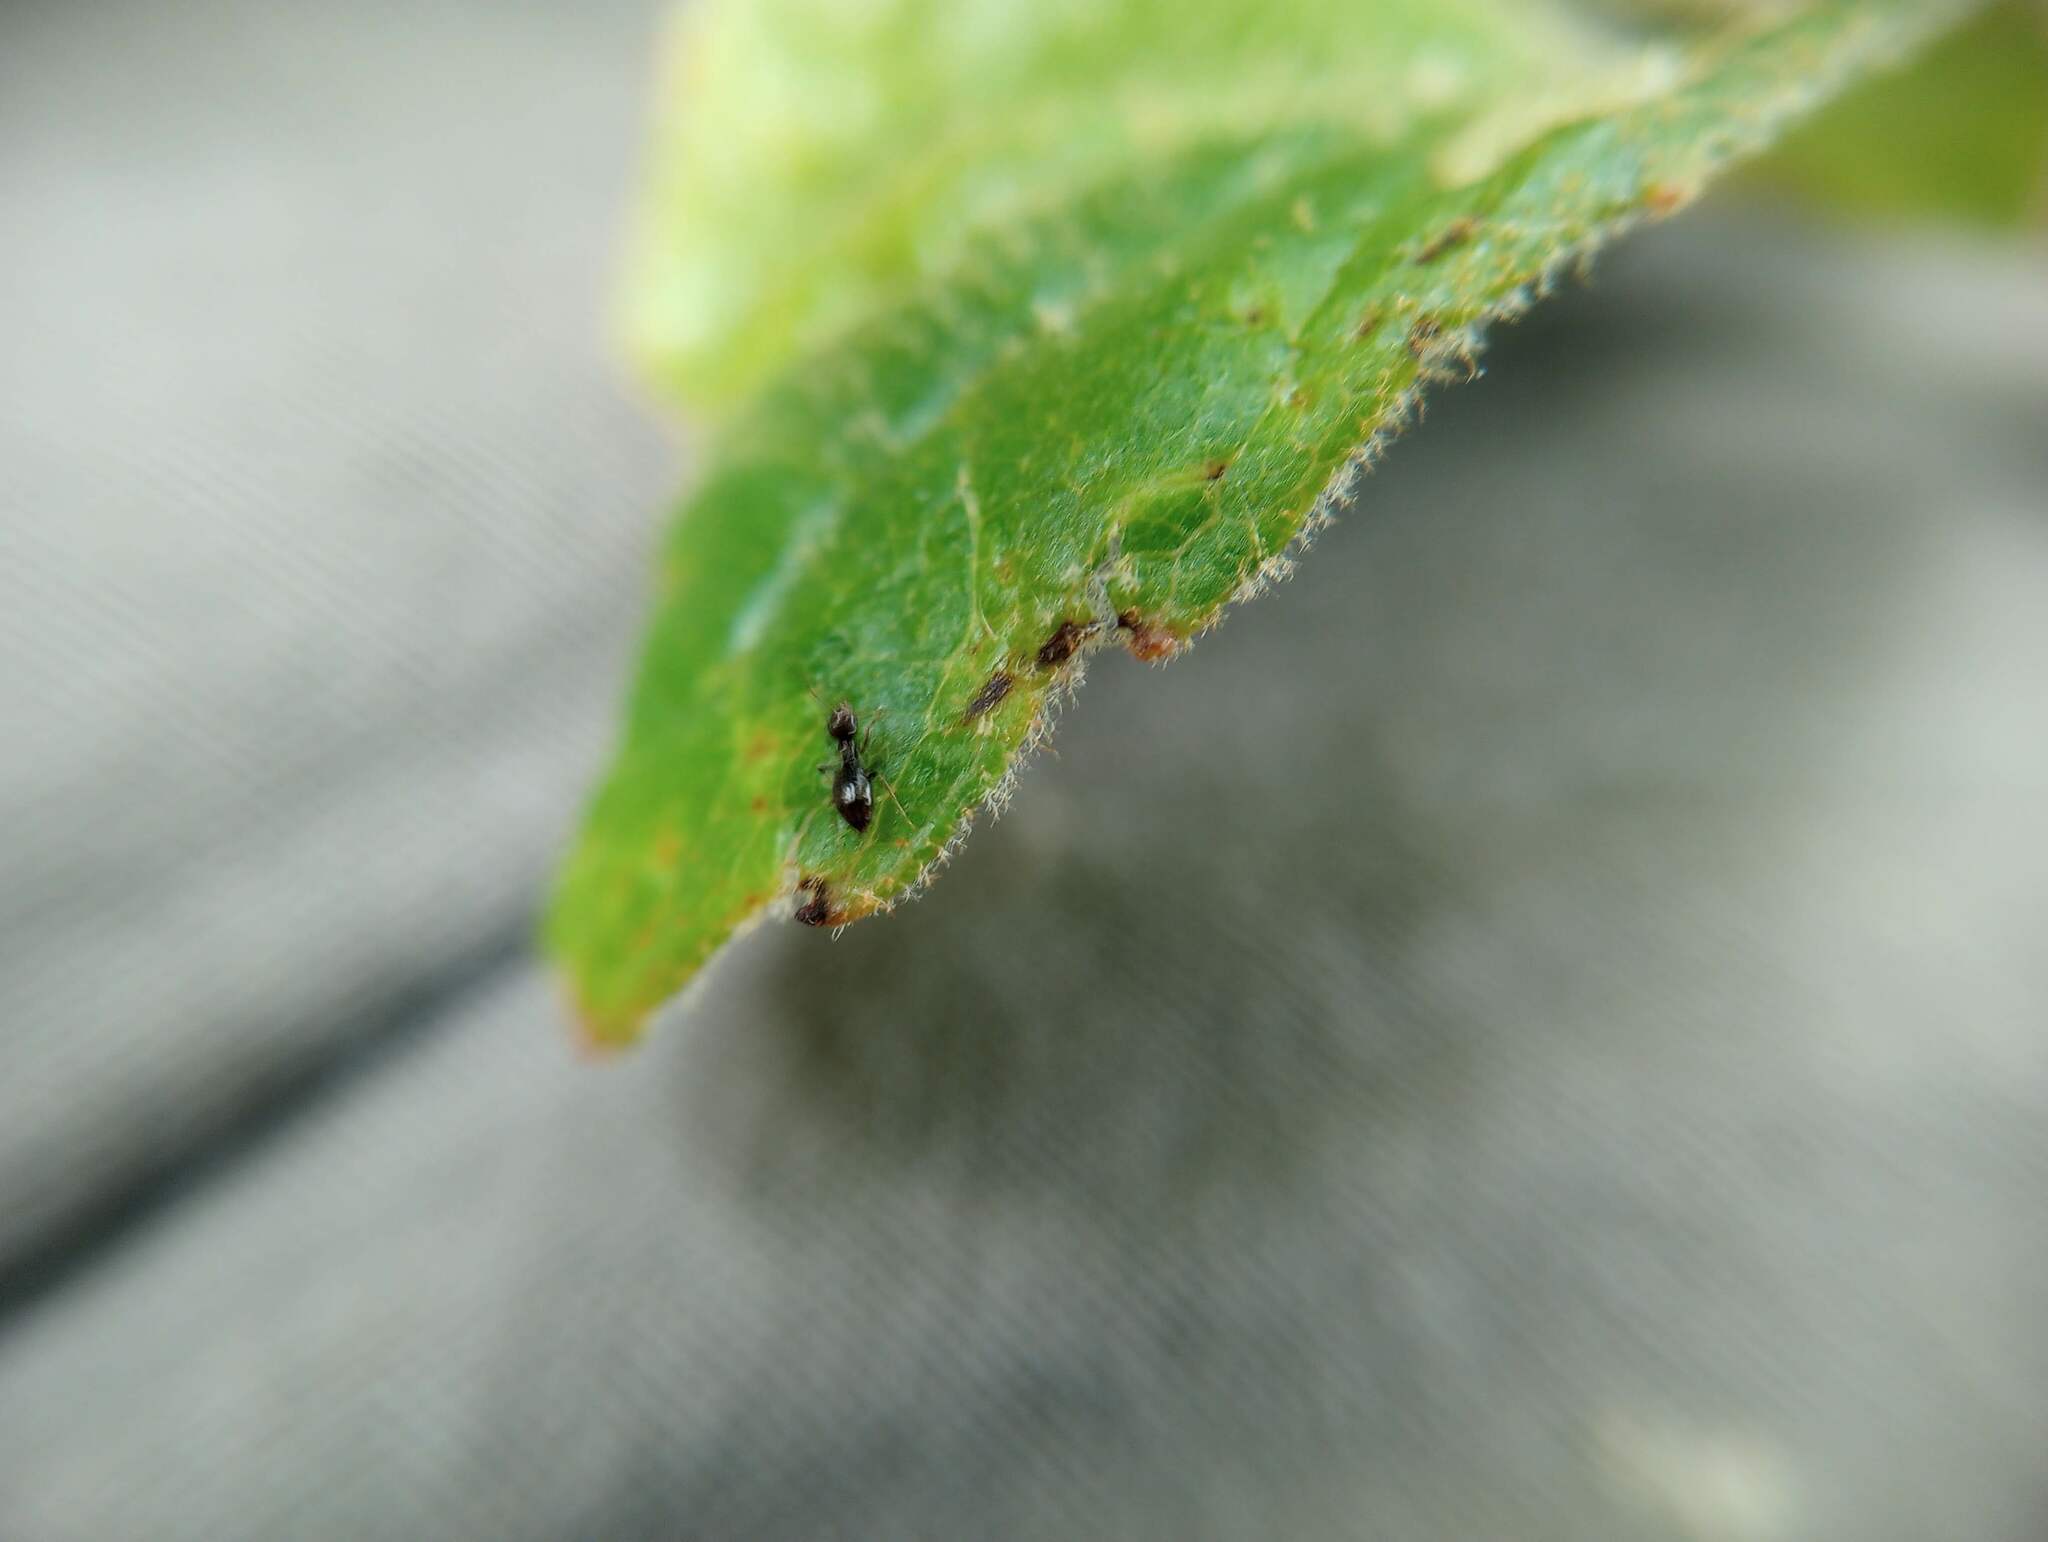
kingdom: Animalia
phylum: Arthropoda
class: Insecta
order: Hymenoptera
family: Formicidae
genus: Brachymyrmex
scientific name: Brachymyrmex patagonicus
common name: Dark rover ant
